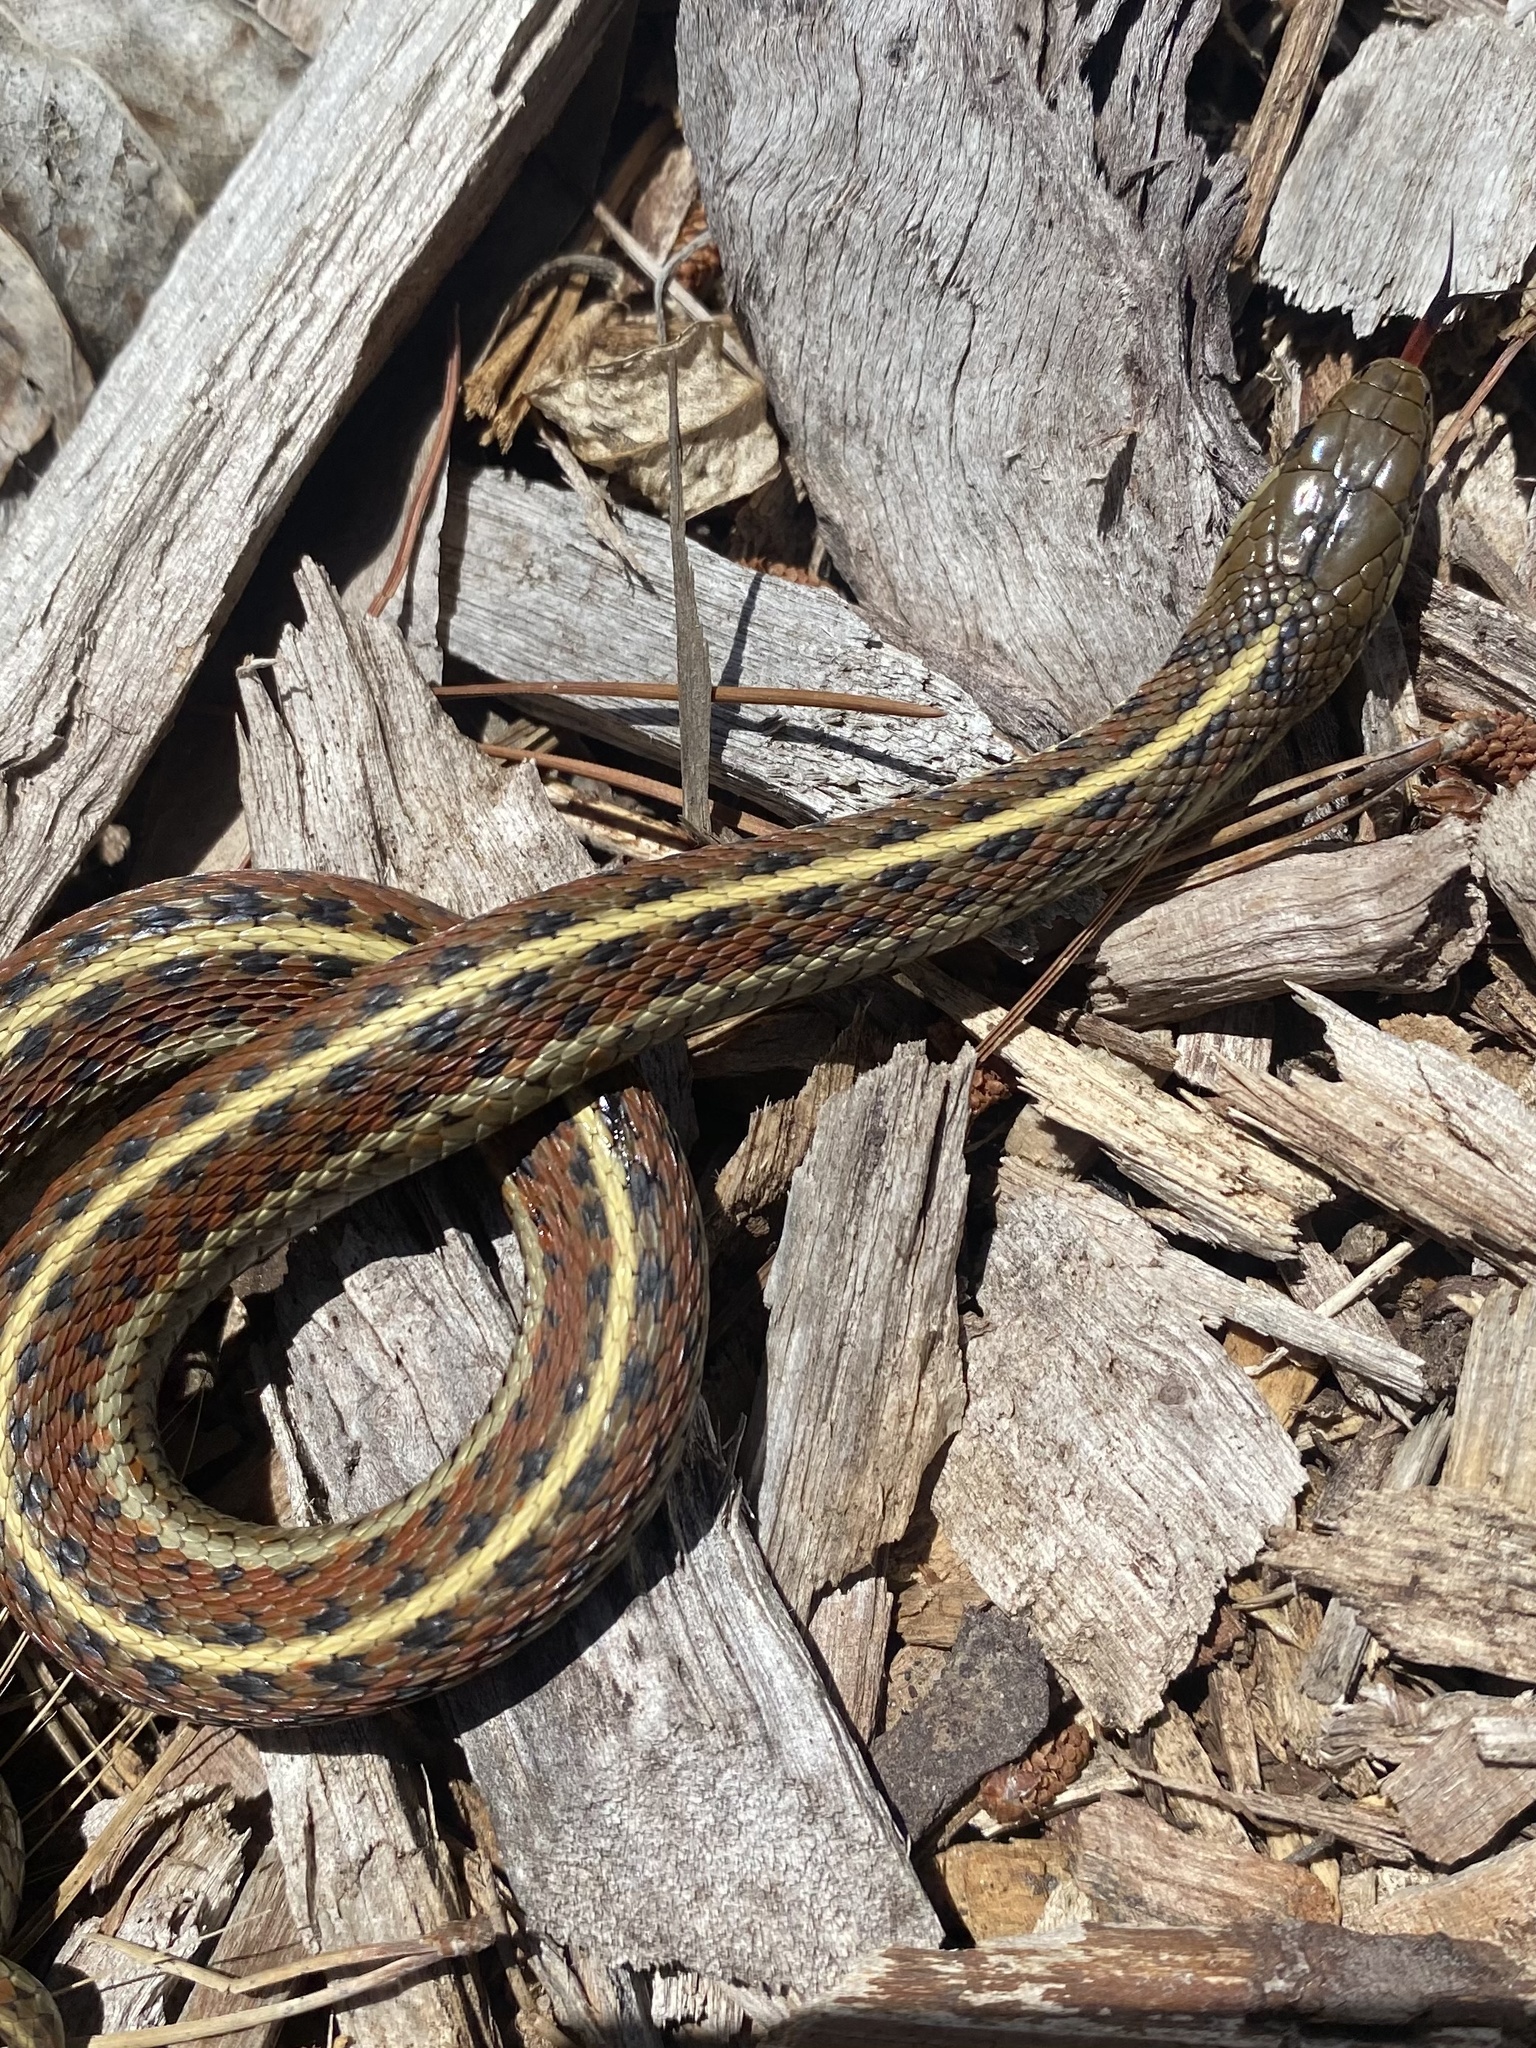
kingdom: Animalia
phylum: Chordata
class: Squamata
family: Colubridae
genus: Thamnophis
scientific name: Thamnophis elegans
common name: Western terrestrial garter snake
